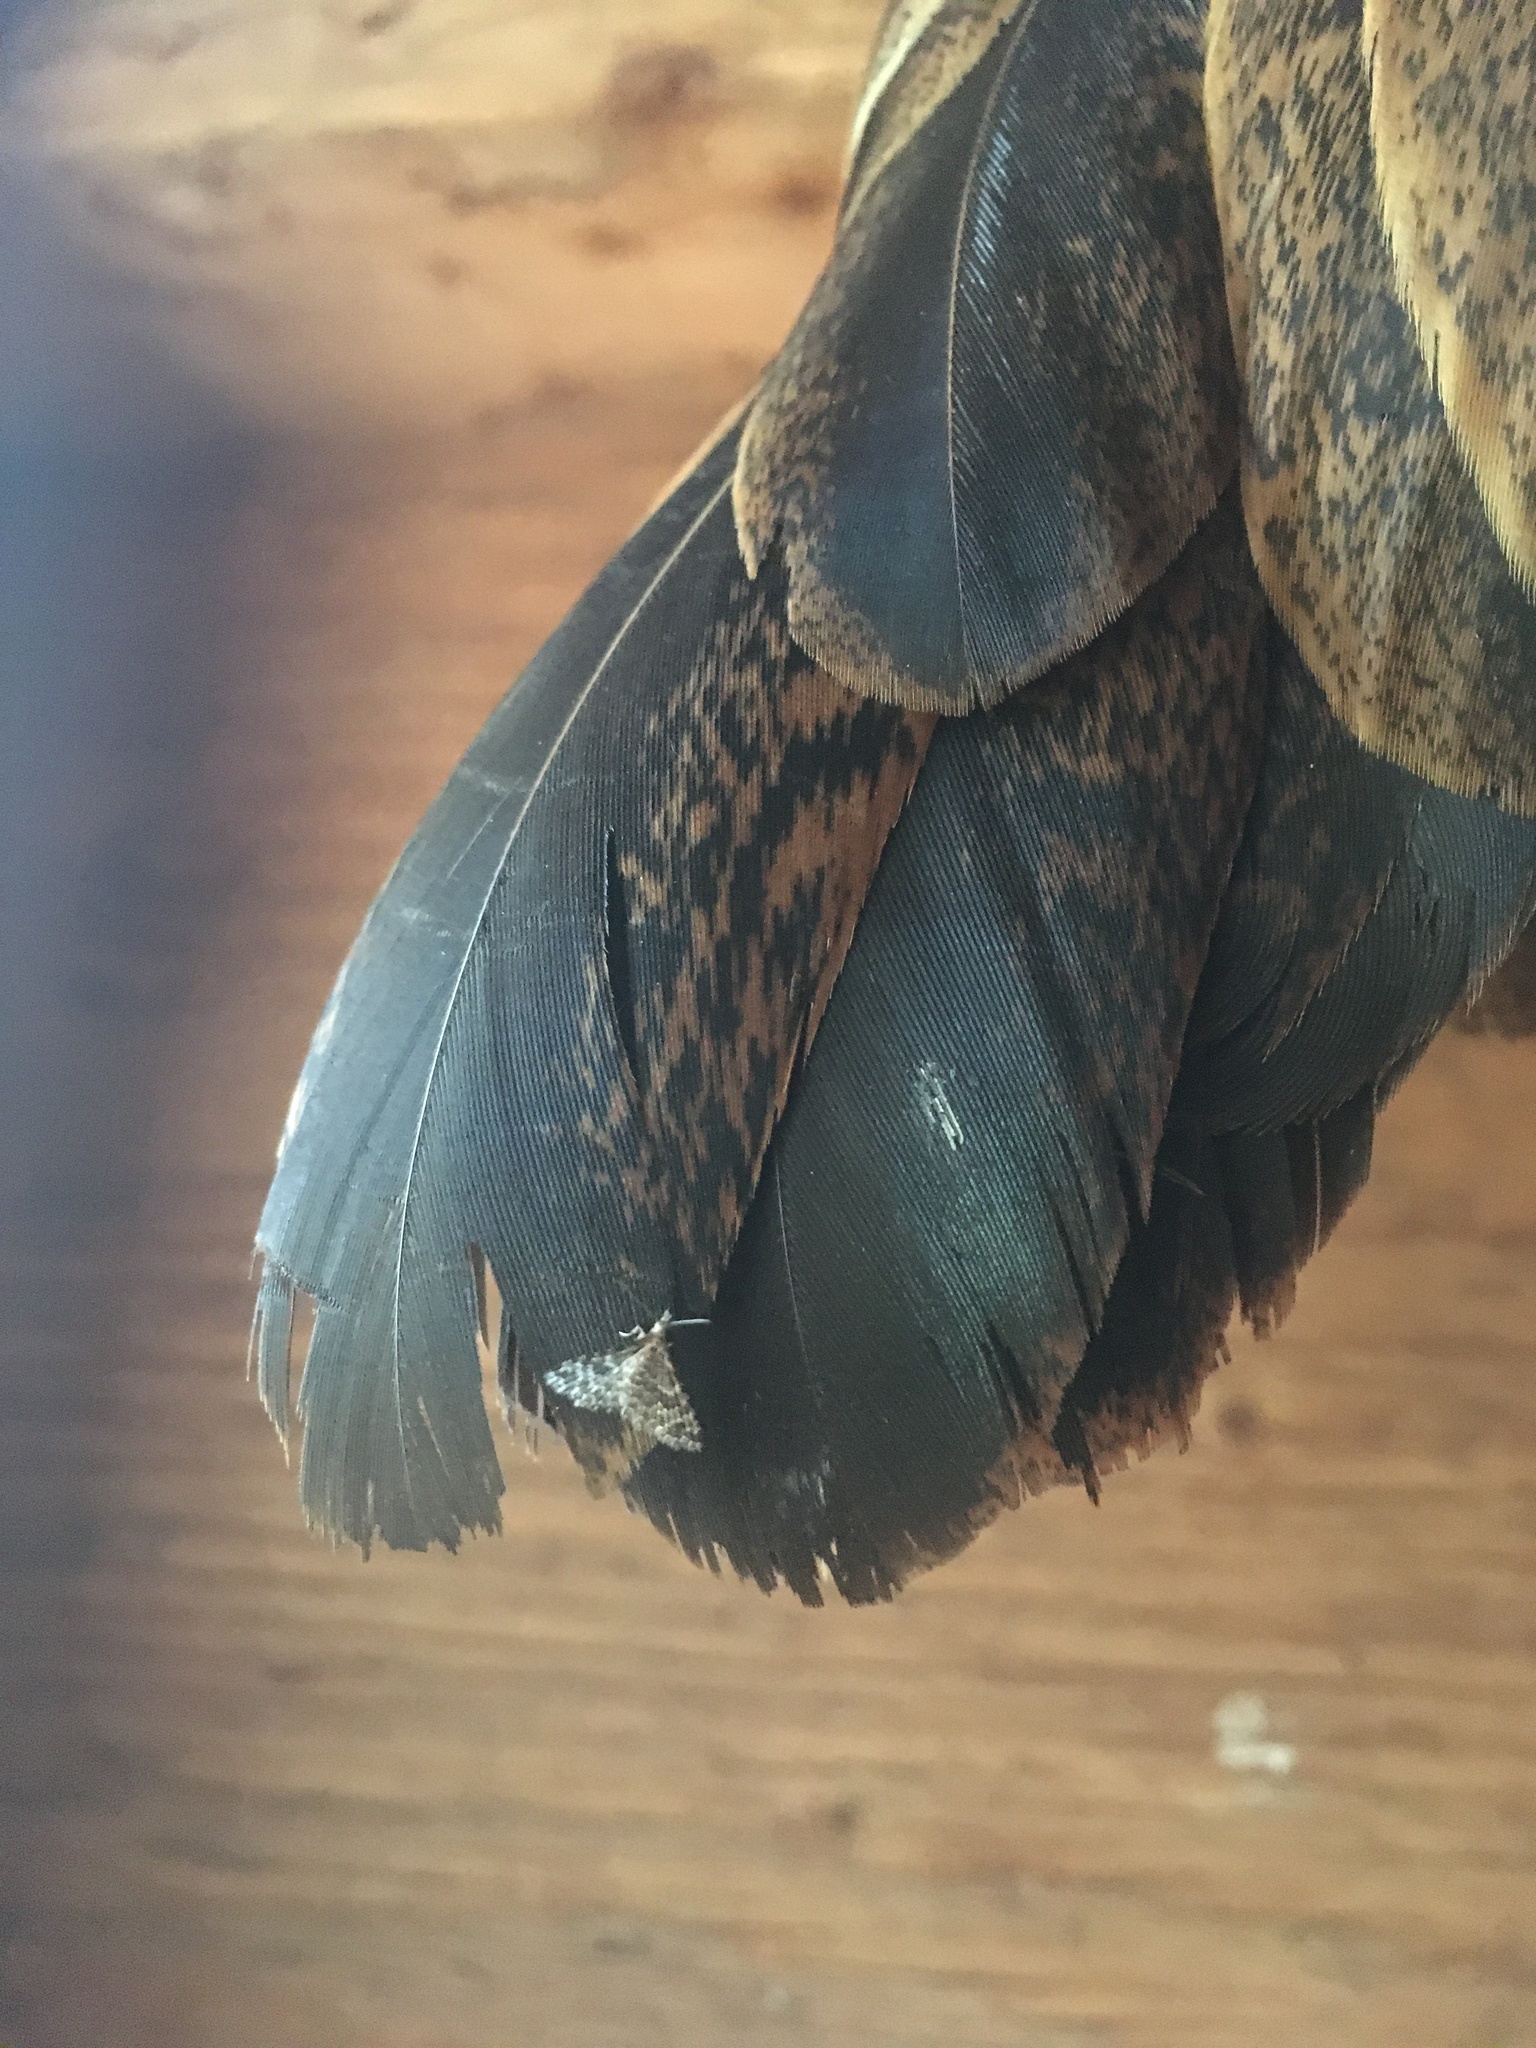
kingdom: Animalia
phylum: Arthropoda
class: Insecta
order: Lepidoptera
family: Alucitidae
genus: Alucita
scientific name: Alucita montana
